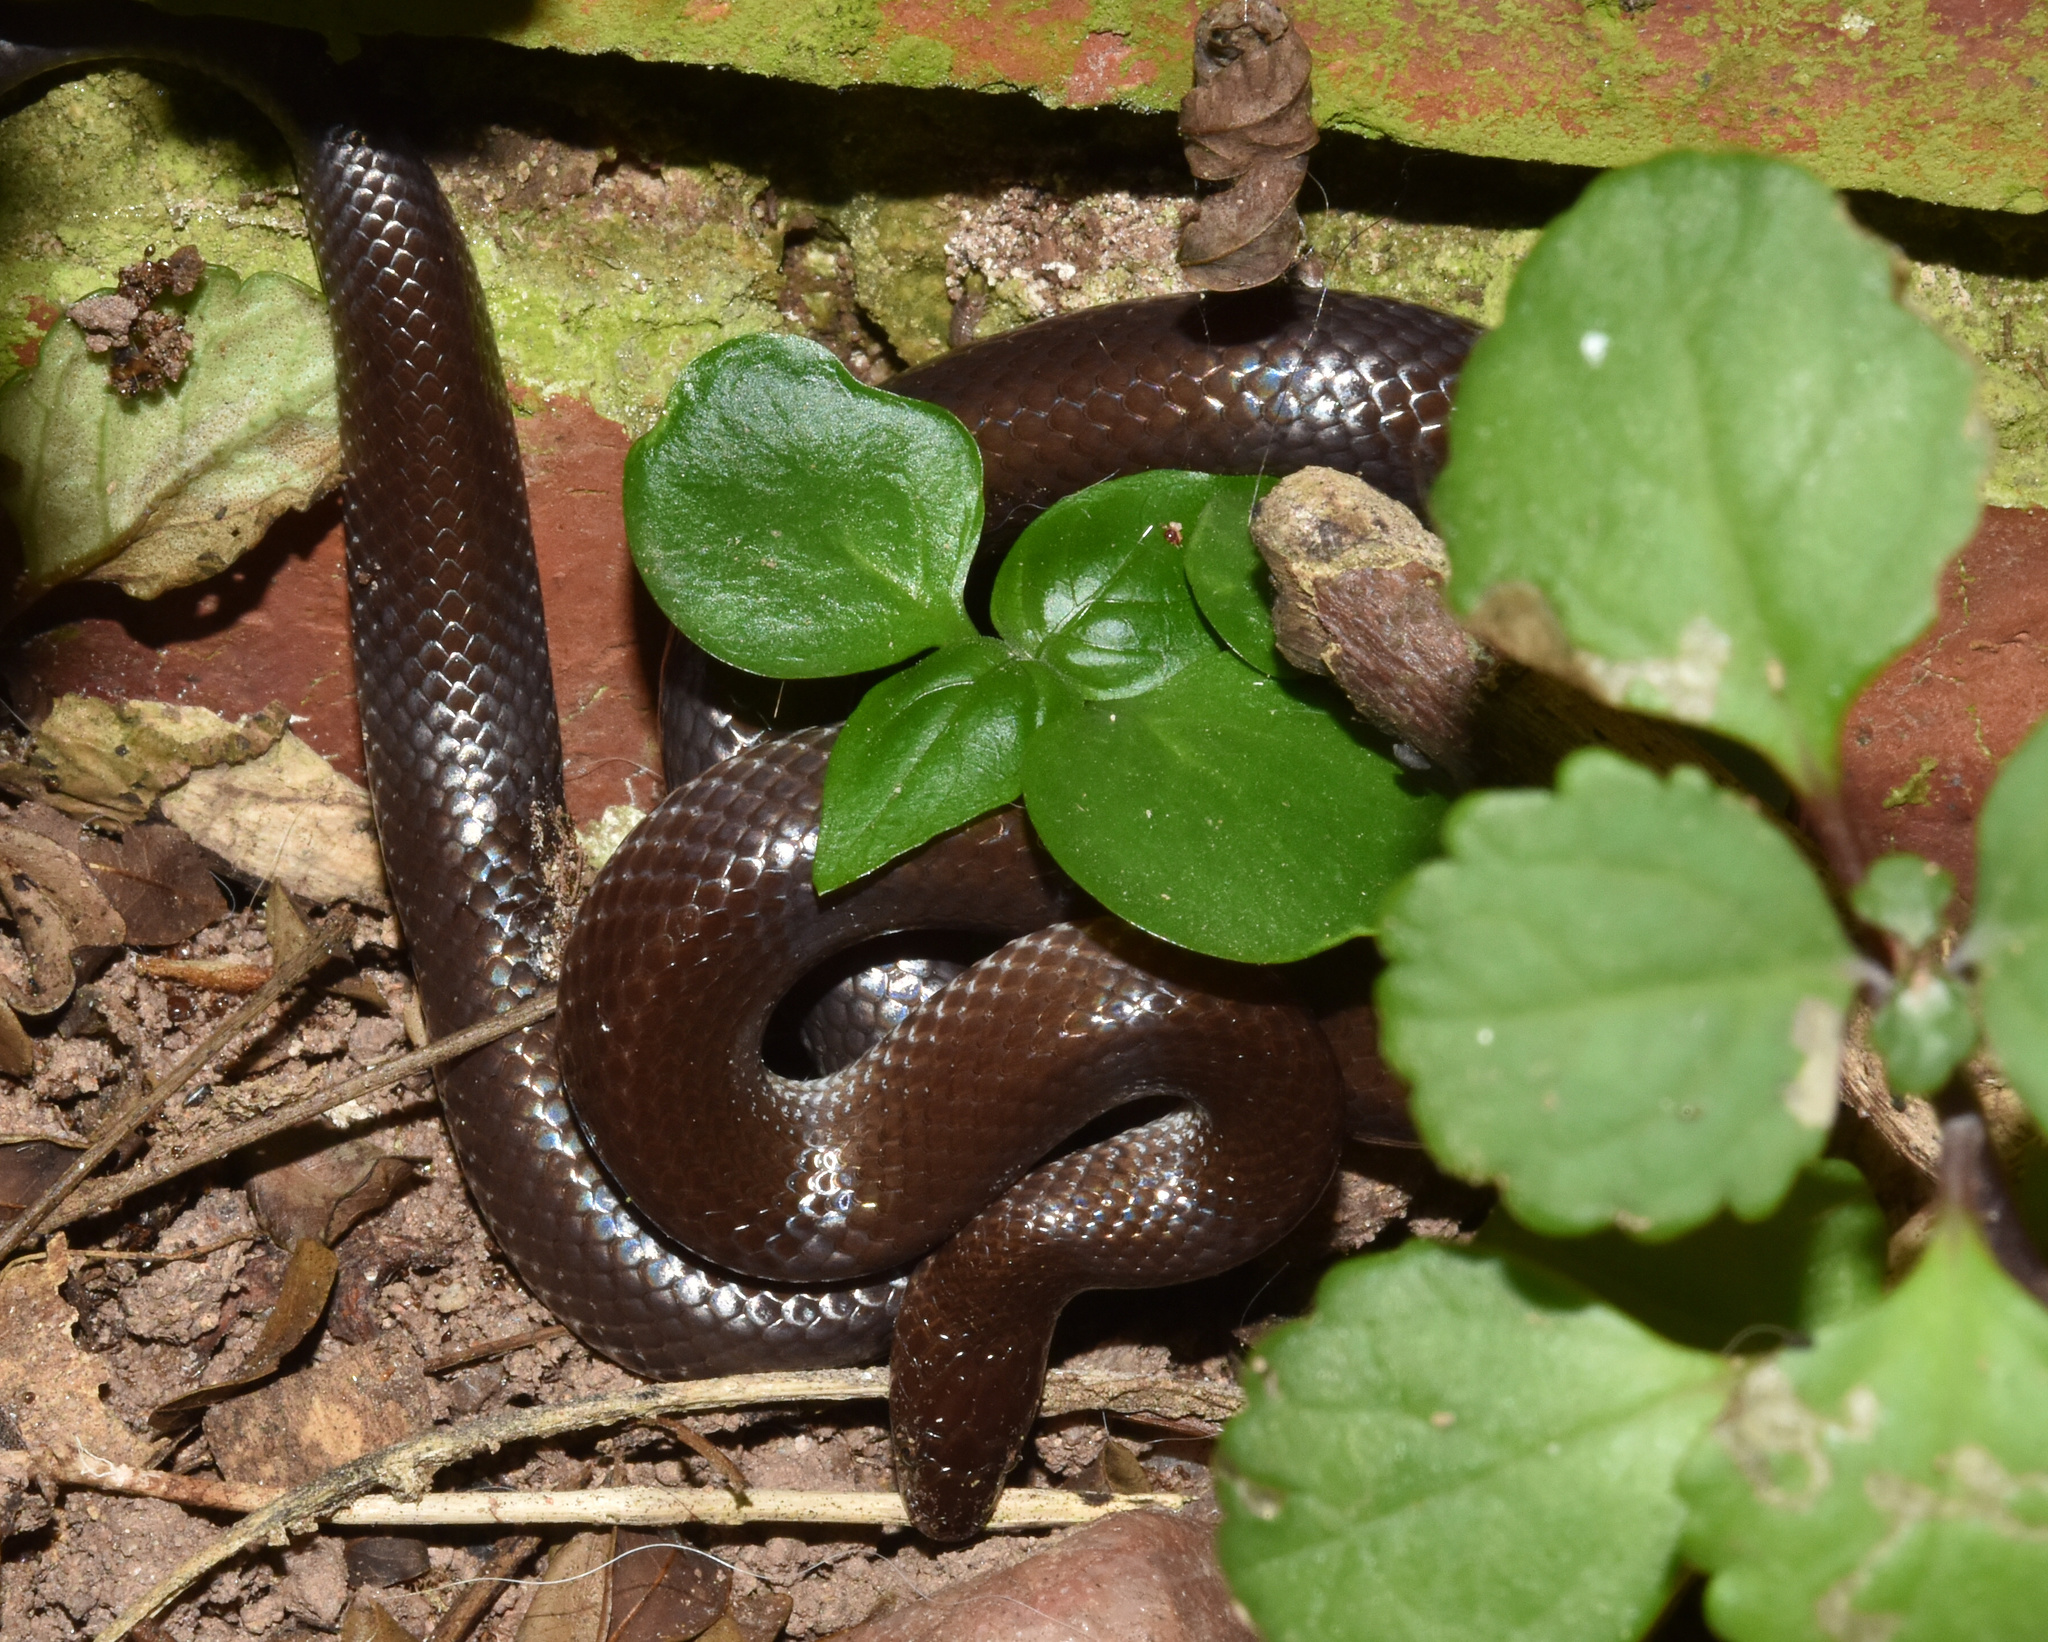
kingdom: Animalia
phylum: Chordata
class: Squamata
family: Lamprophiidae
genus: Lycophidion
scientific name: Lycophidion capense
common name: Cape wolf snake
